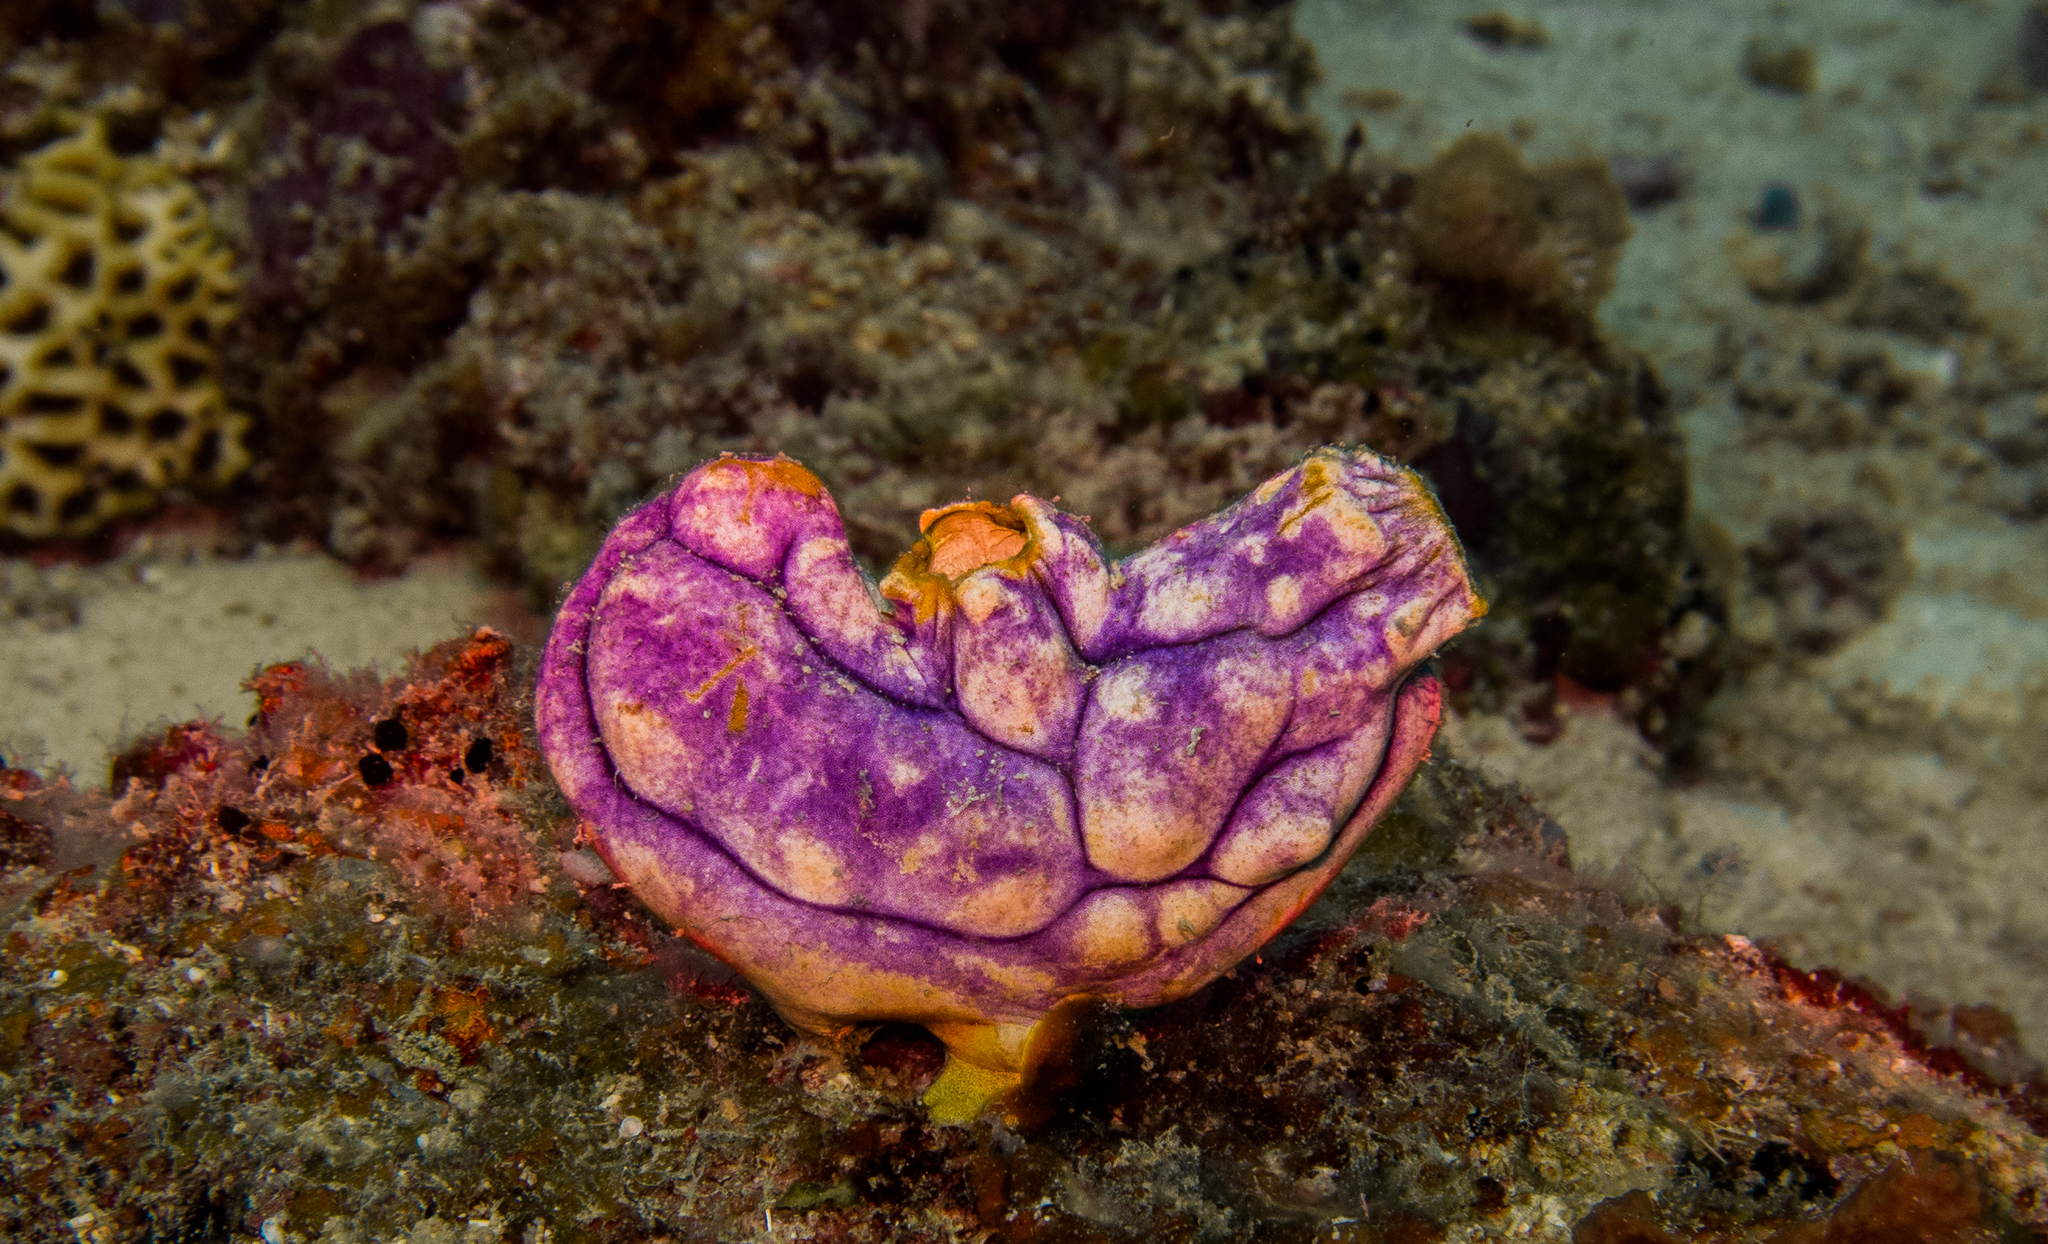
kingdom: Animalia
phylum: Chordata
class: Ascidiacea
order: Stolidobranchia
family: Styelidae
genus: Polycarpa
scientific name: Polycarpa aurata
